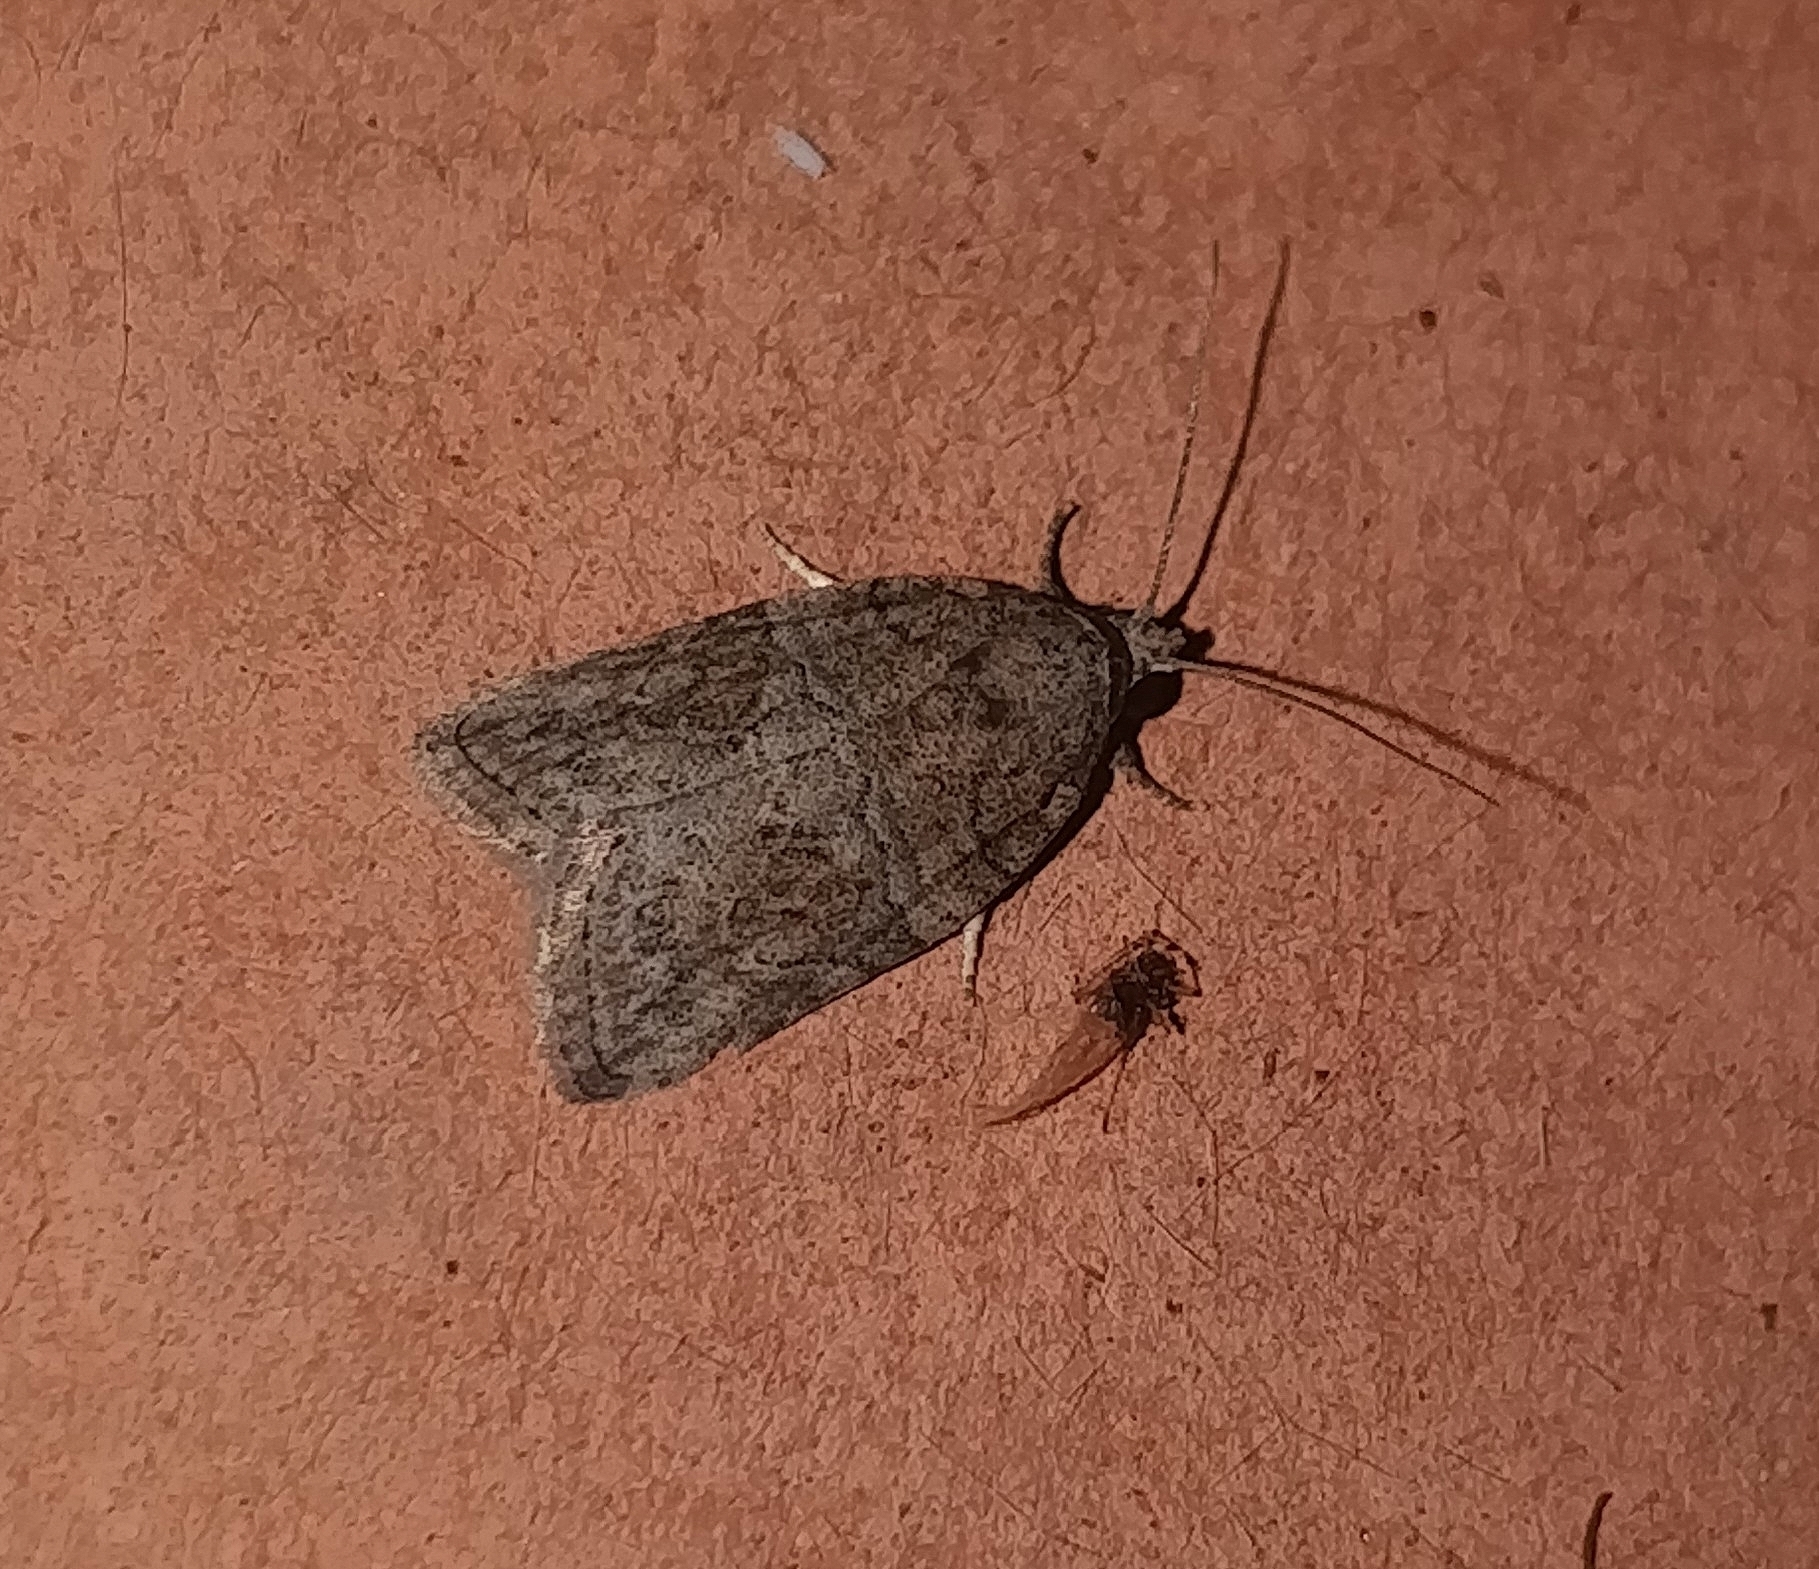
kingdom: Animalia
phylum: Arthropoda
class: Insecta
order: Lepidoptera
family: Nolidae
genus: Garella
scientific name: Garella nilotica
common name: Black-olive caterpillar moth
